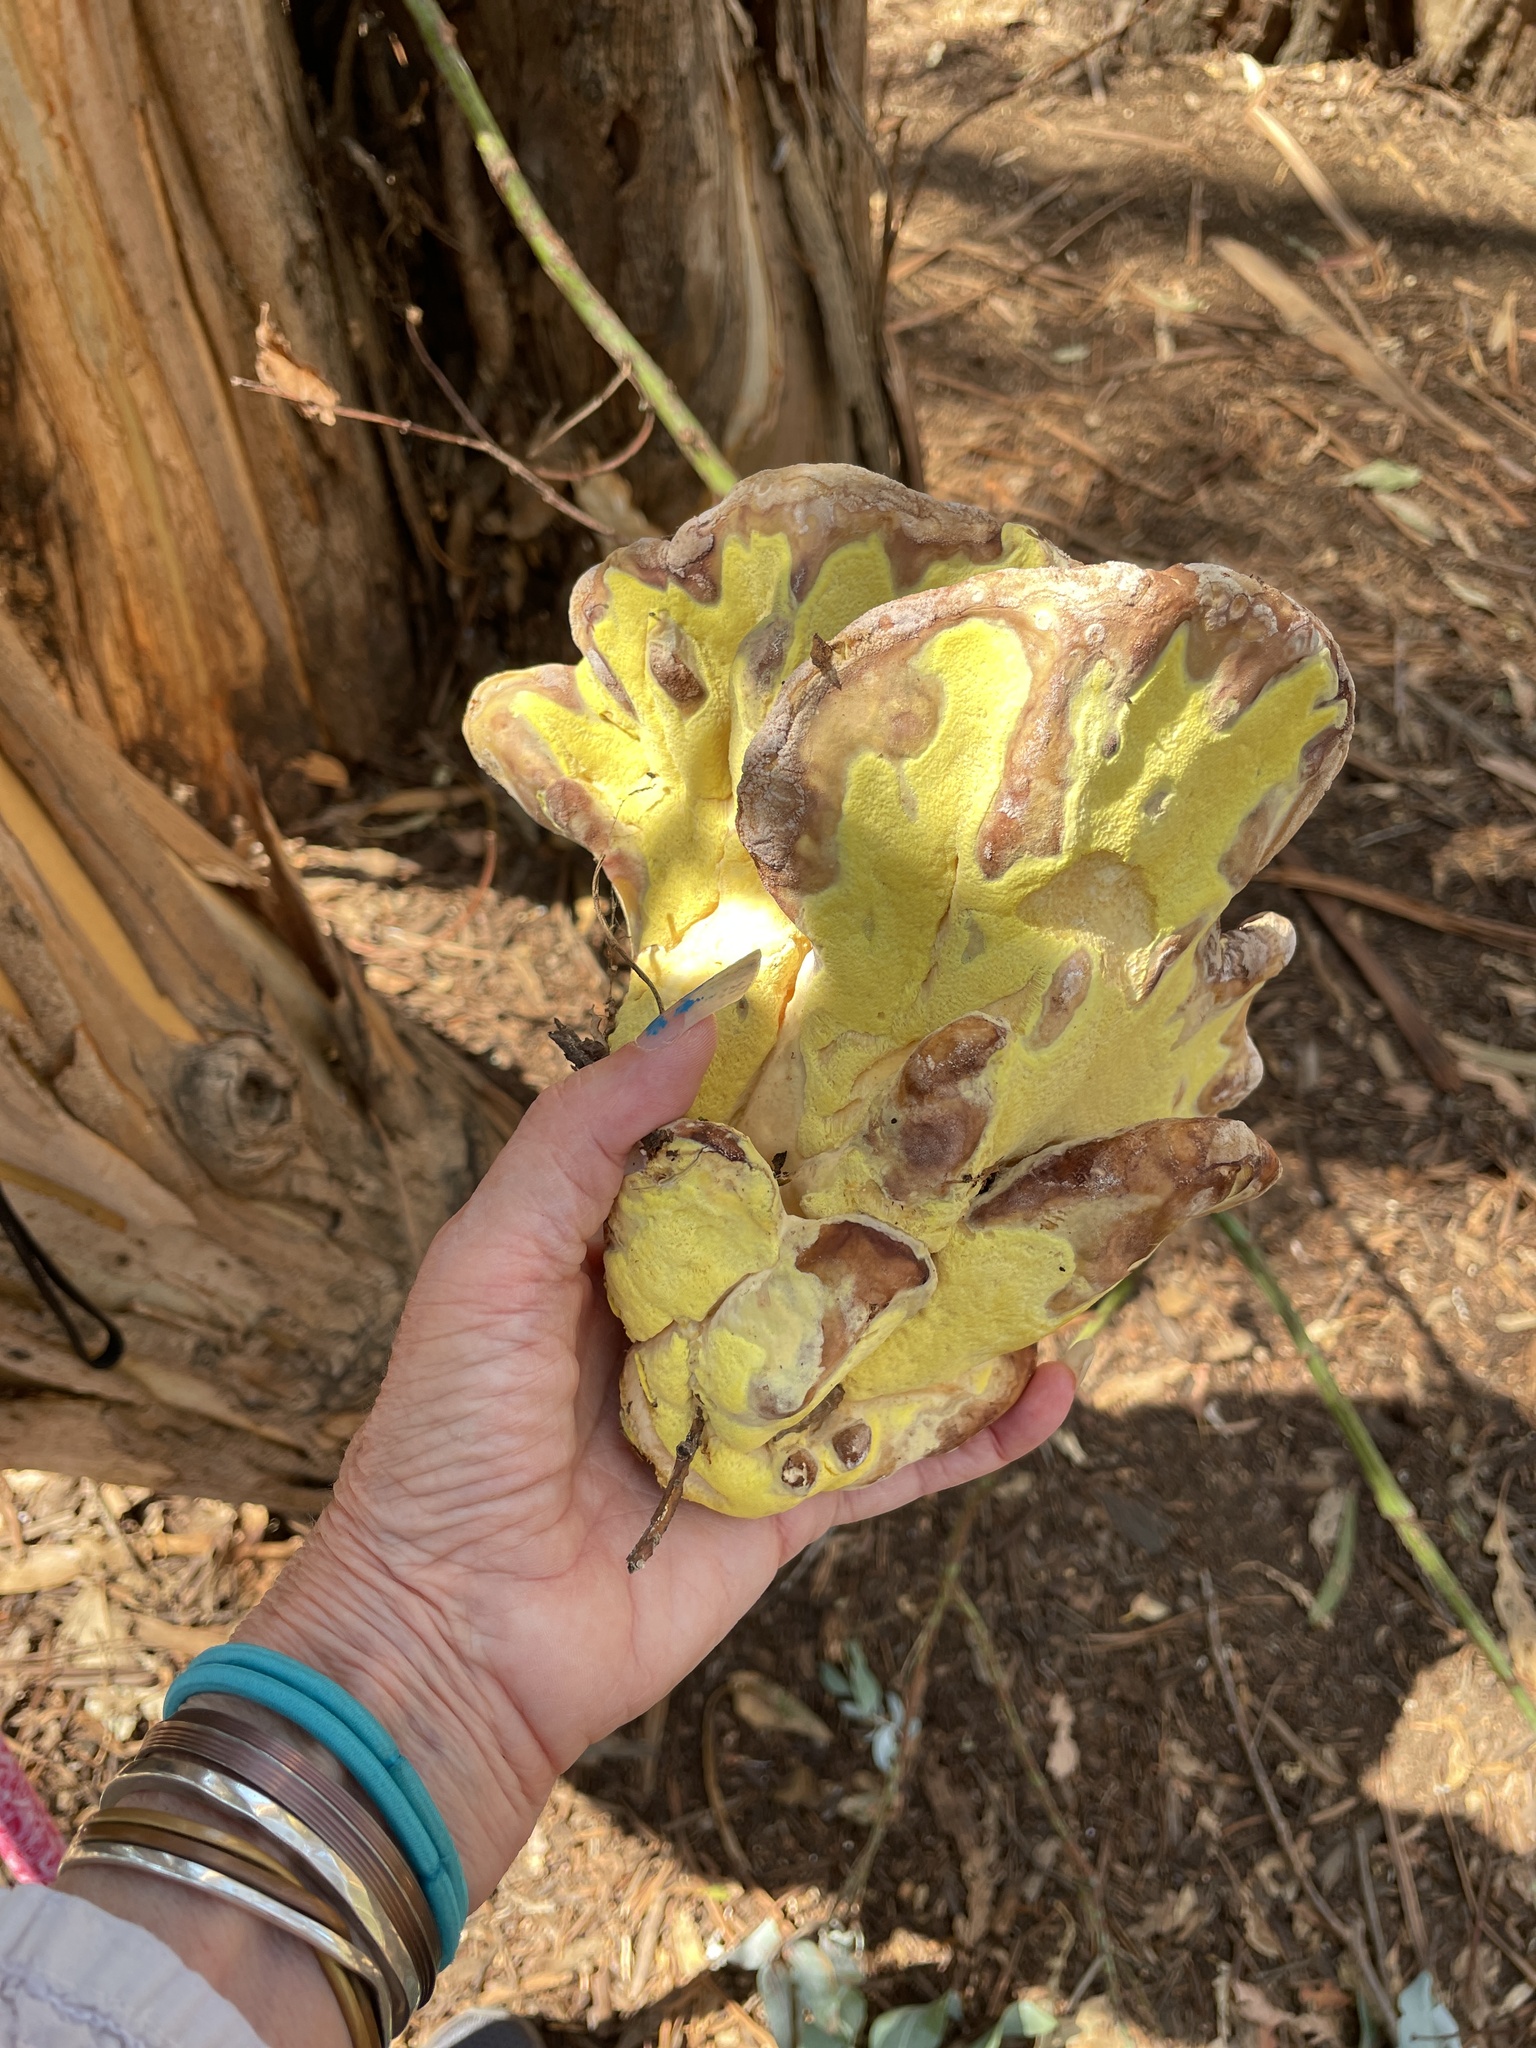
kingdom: Fungi
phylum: Basidiomycota
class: Agaricomycetes
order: Polyporales
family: Laetiporaceae
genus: Laetiporus
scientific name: Laetiporus gilbertsonii
